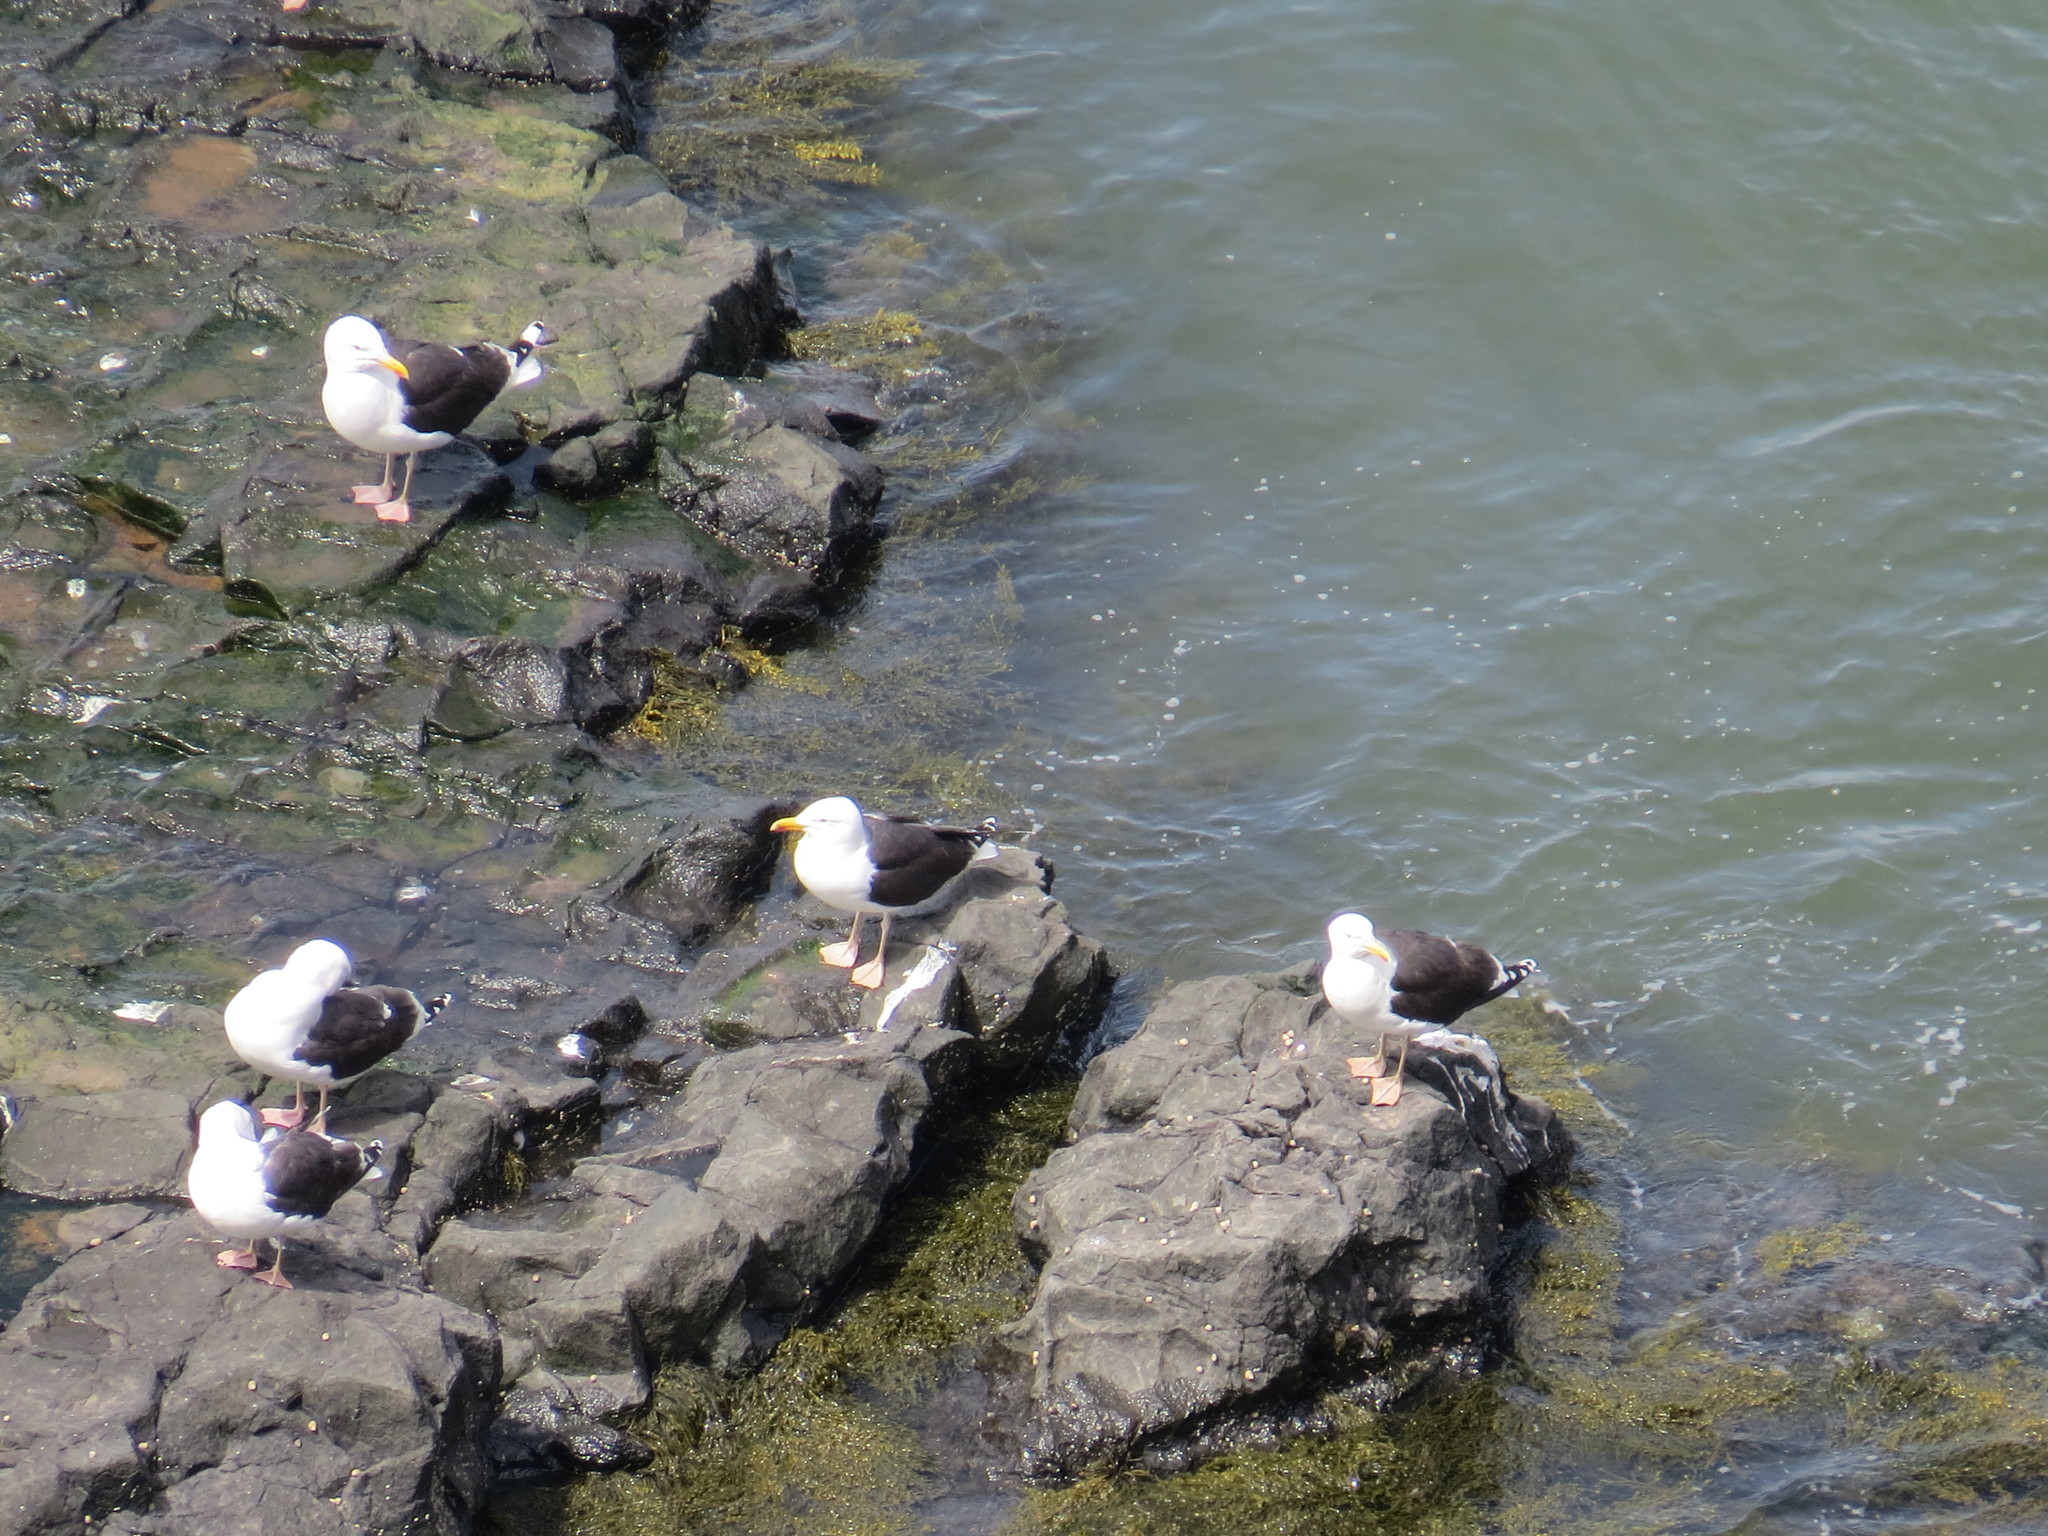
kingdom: Animalia
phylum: Chordata
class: Aves
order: Charadriiformes
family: Laridae
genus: Larus
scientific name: Larus marinus
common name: Great black-backed gull
